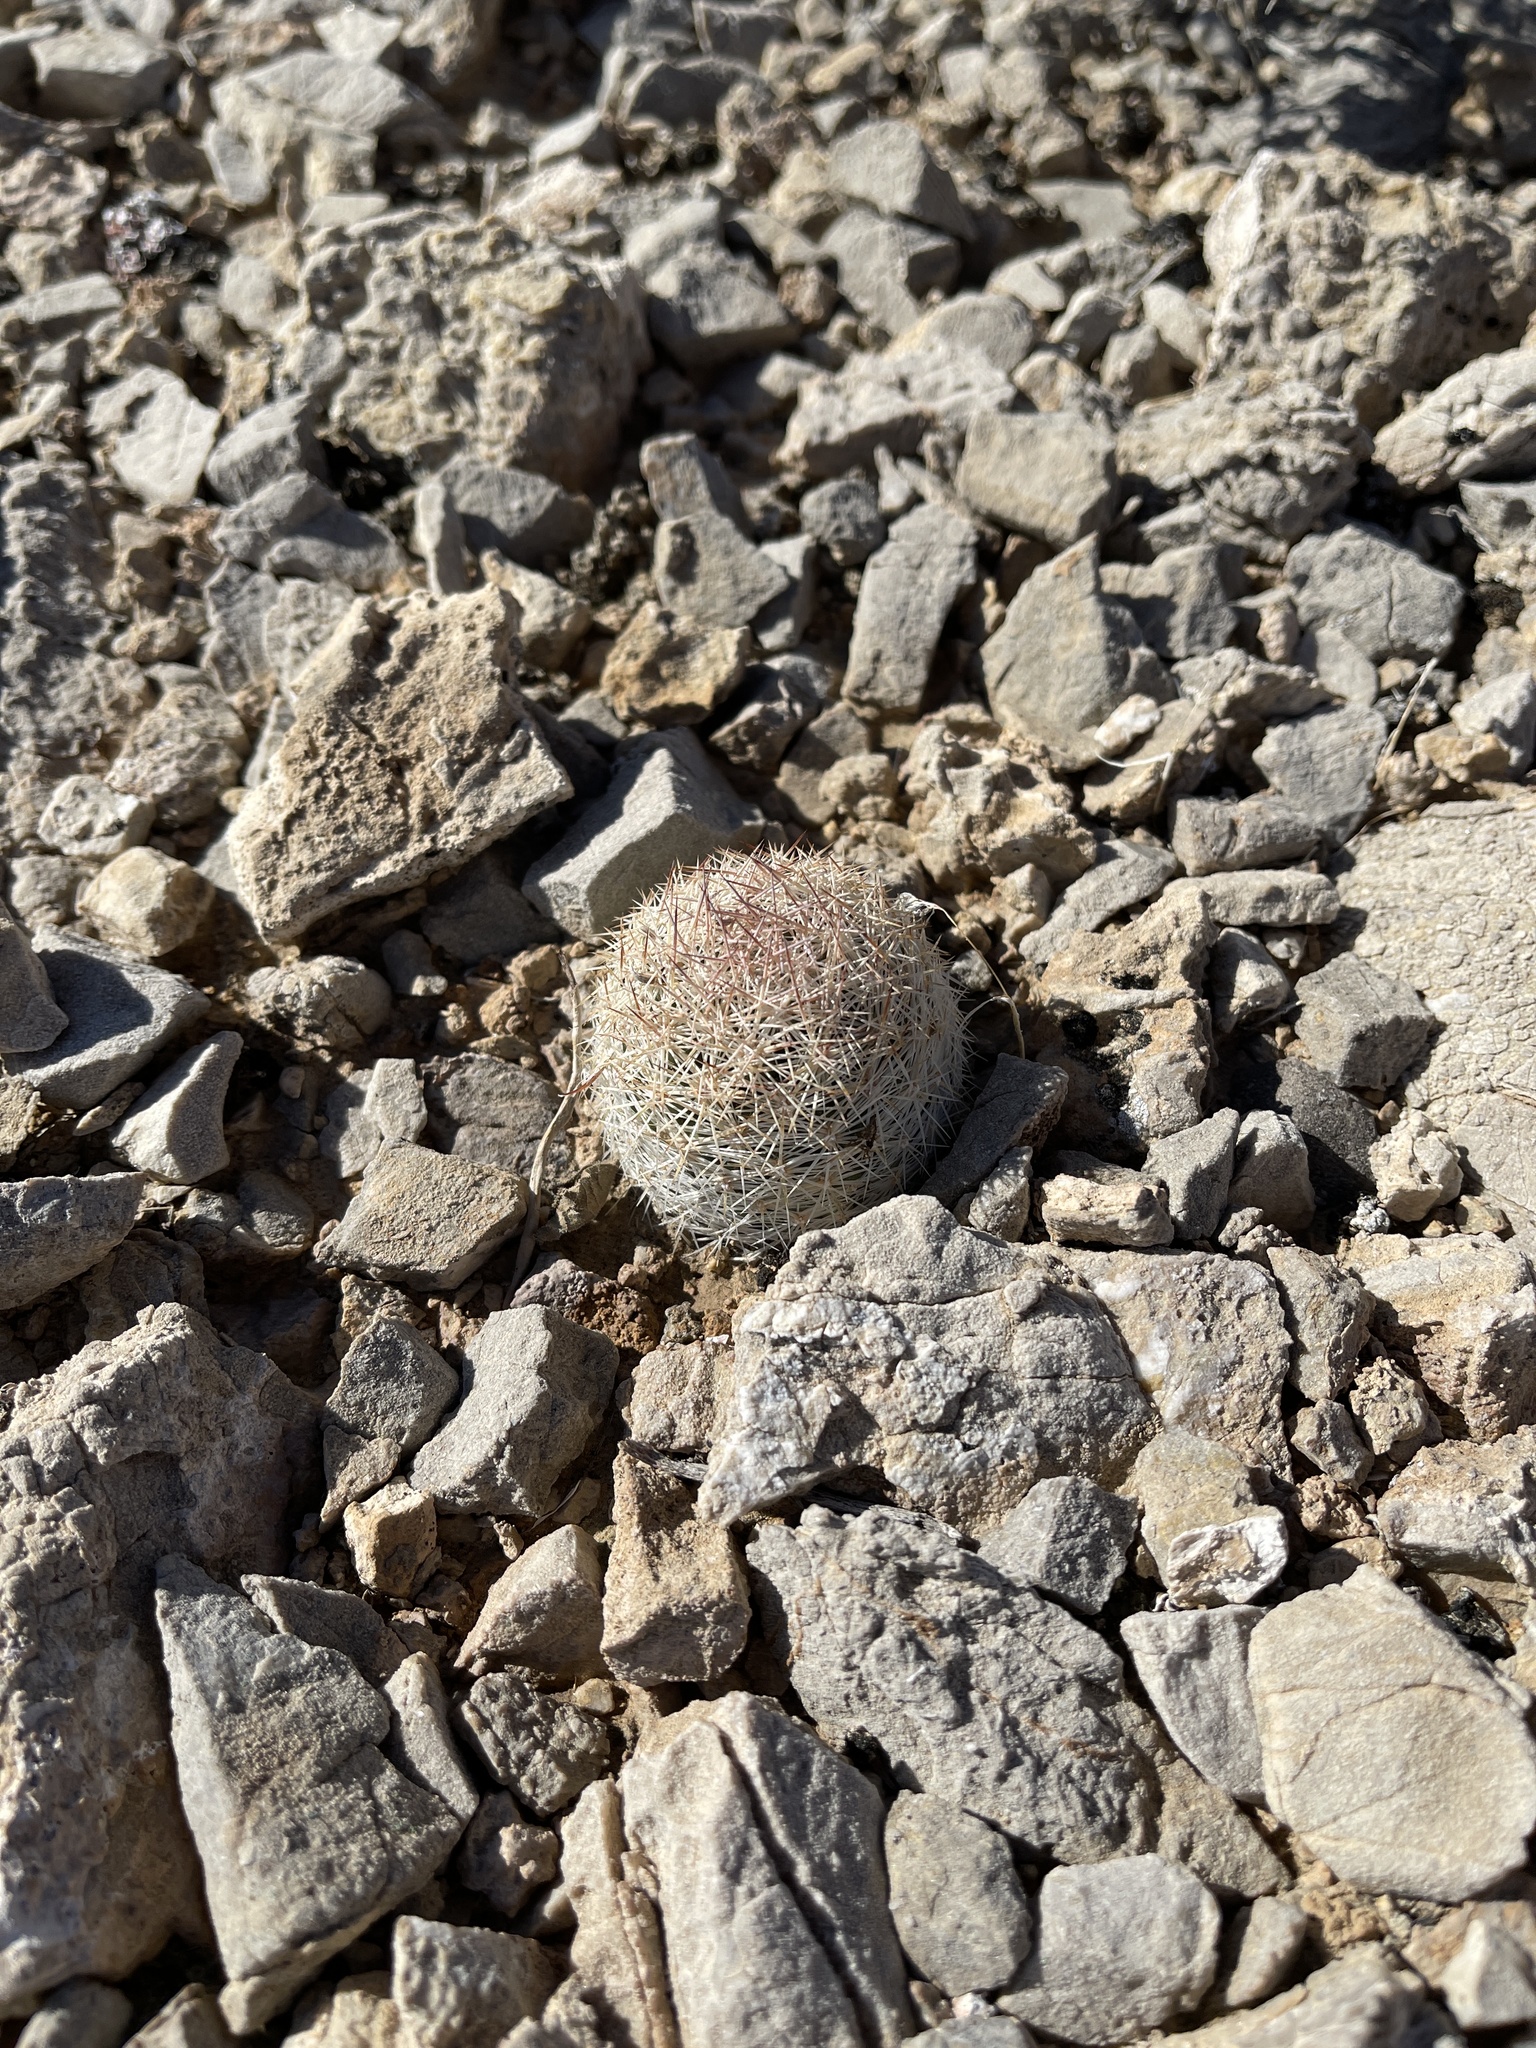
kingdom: Plantae
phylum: Tracheophyta
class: Magnoliopsida
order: Caryophyllales
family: Cactaceae
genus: Pelecyphora
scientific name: Pelecyphora dasyacantha
